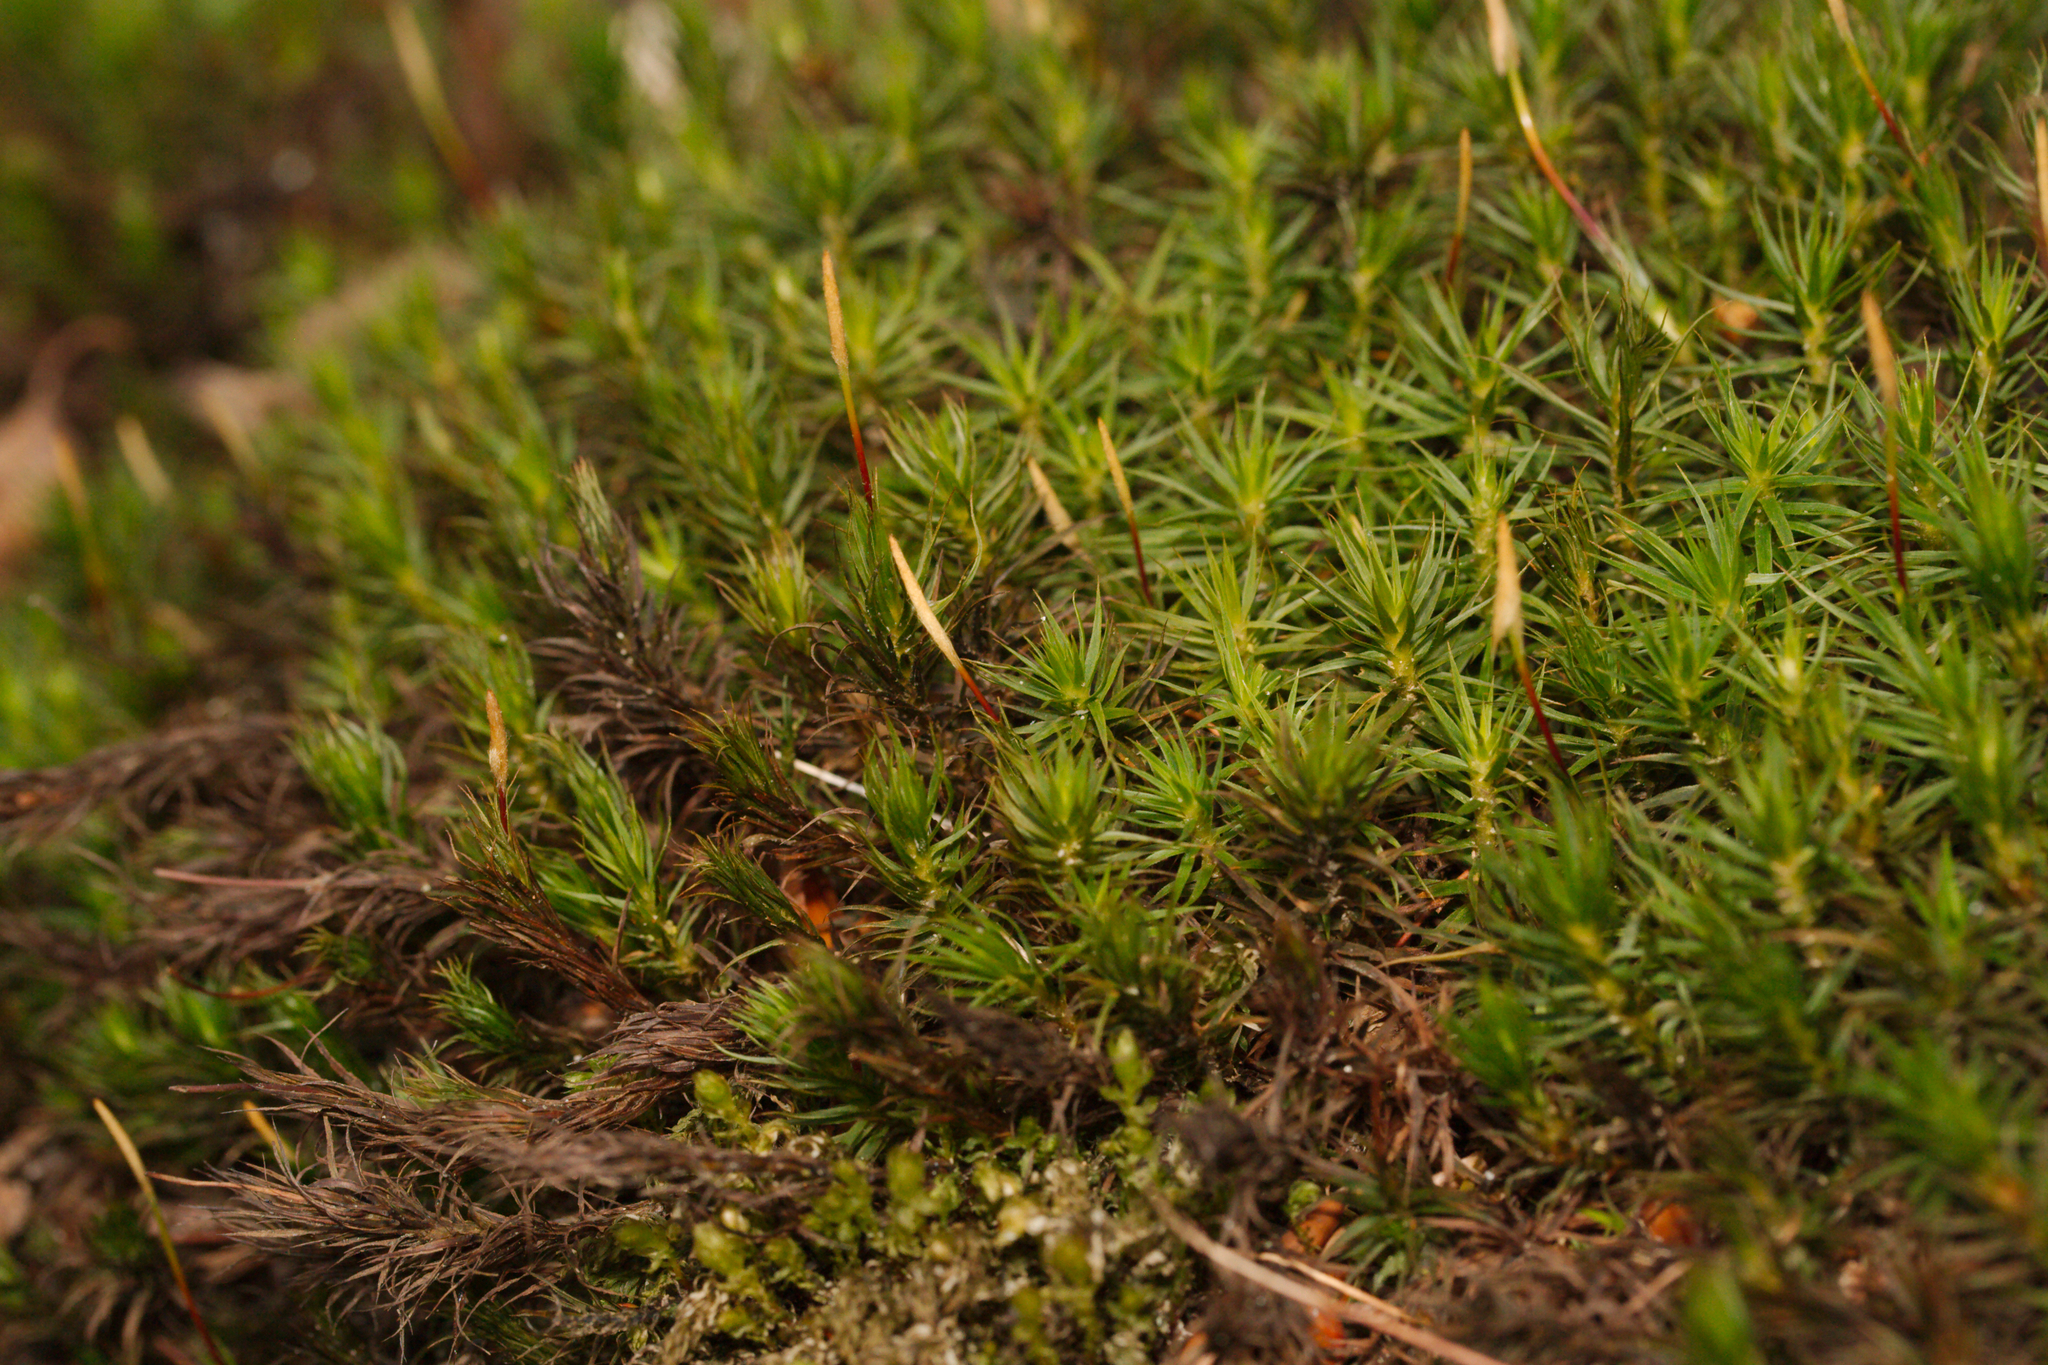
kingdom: Plantae
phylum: Bryophyta
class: Polytrichopsida
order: Polytrichales
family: Polytrichaceae
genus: Polytrichum
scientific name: Polytrichum formosum
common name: Bank haircap moss
